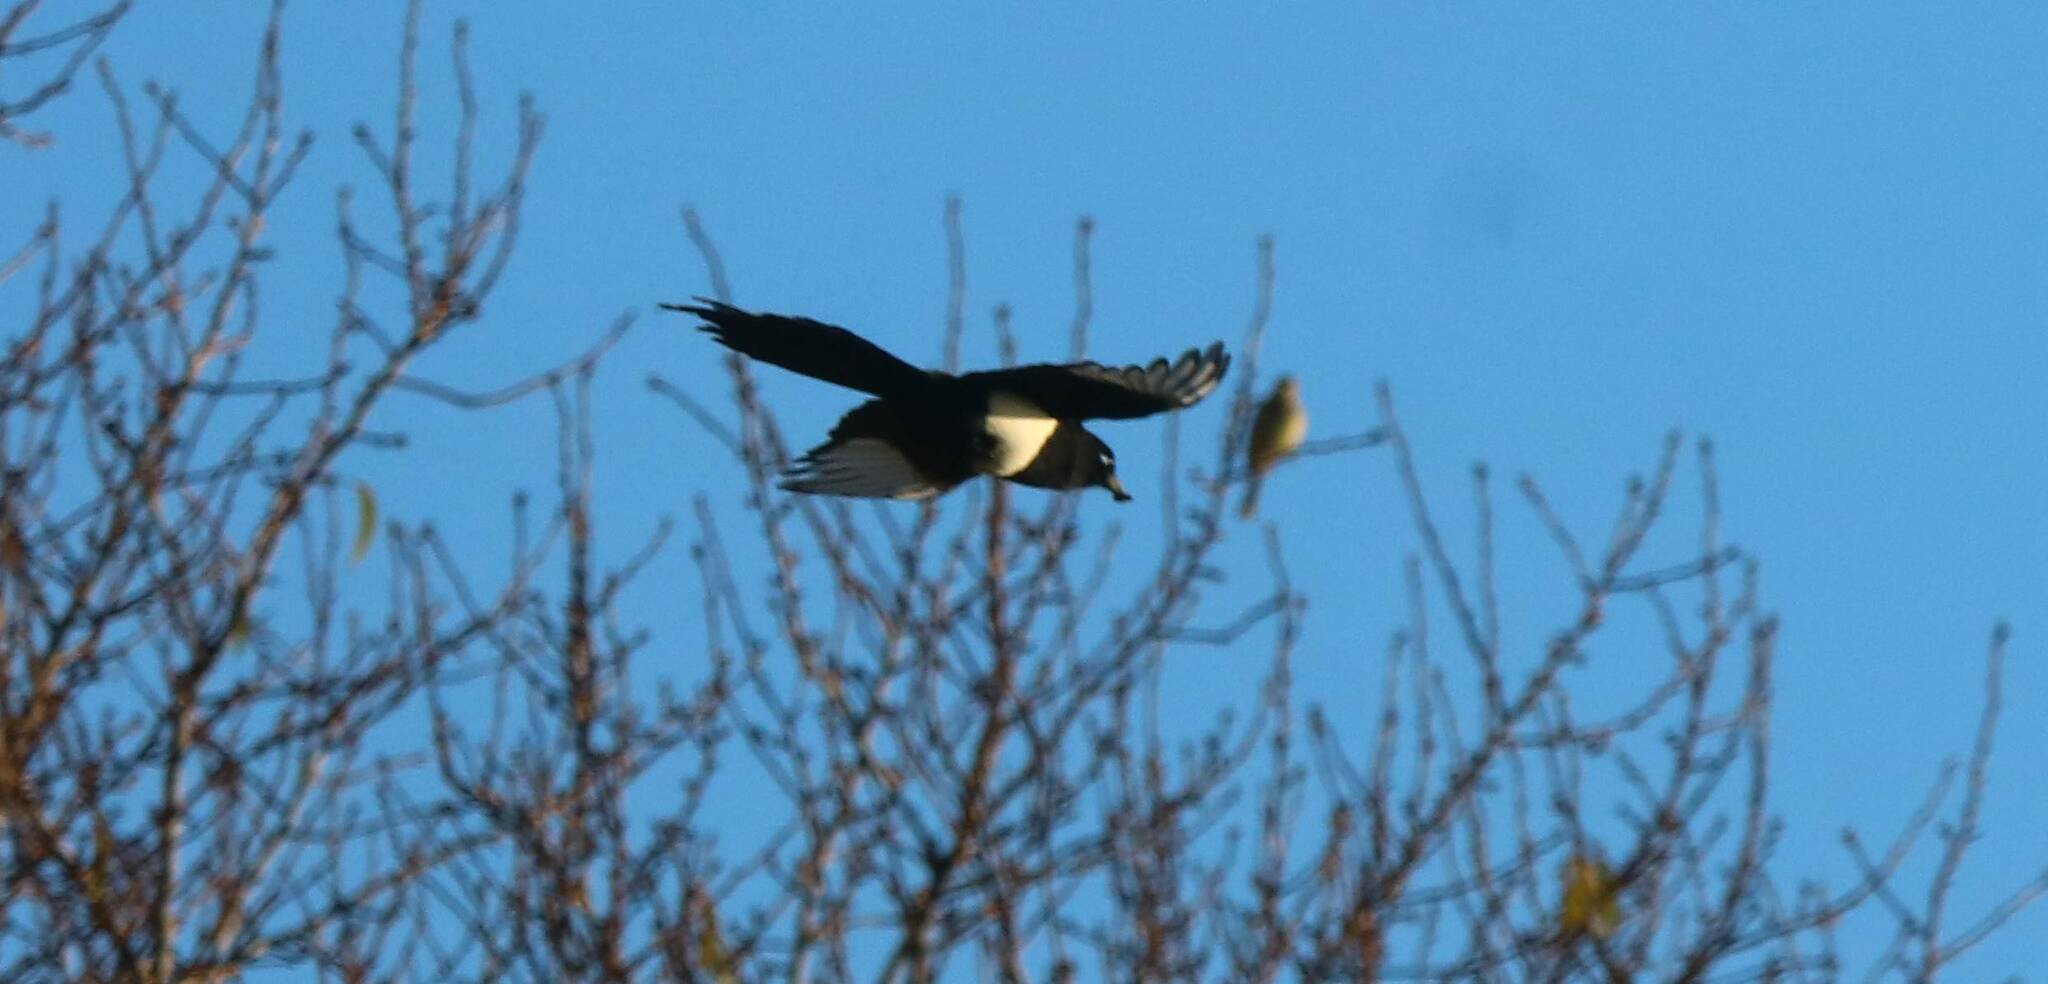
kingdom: Animalia
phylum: Chordata
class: Aves
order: Passeriformes
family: Corvidae
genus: Pica
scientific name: Pica mauritanica
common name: Maghreb magpie
